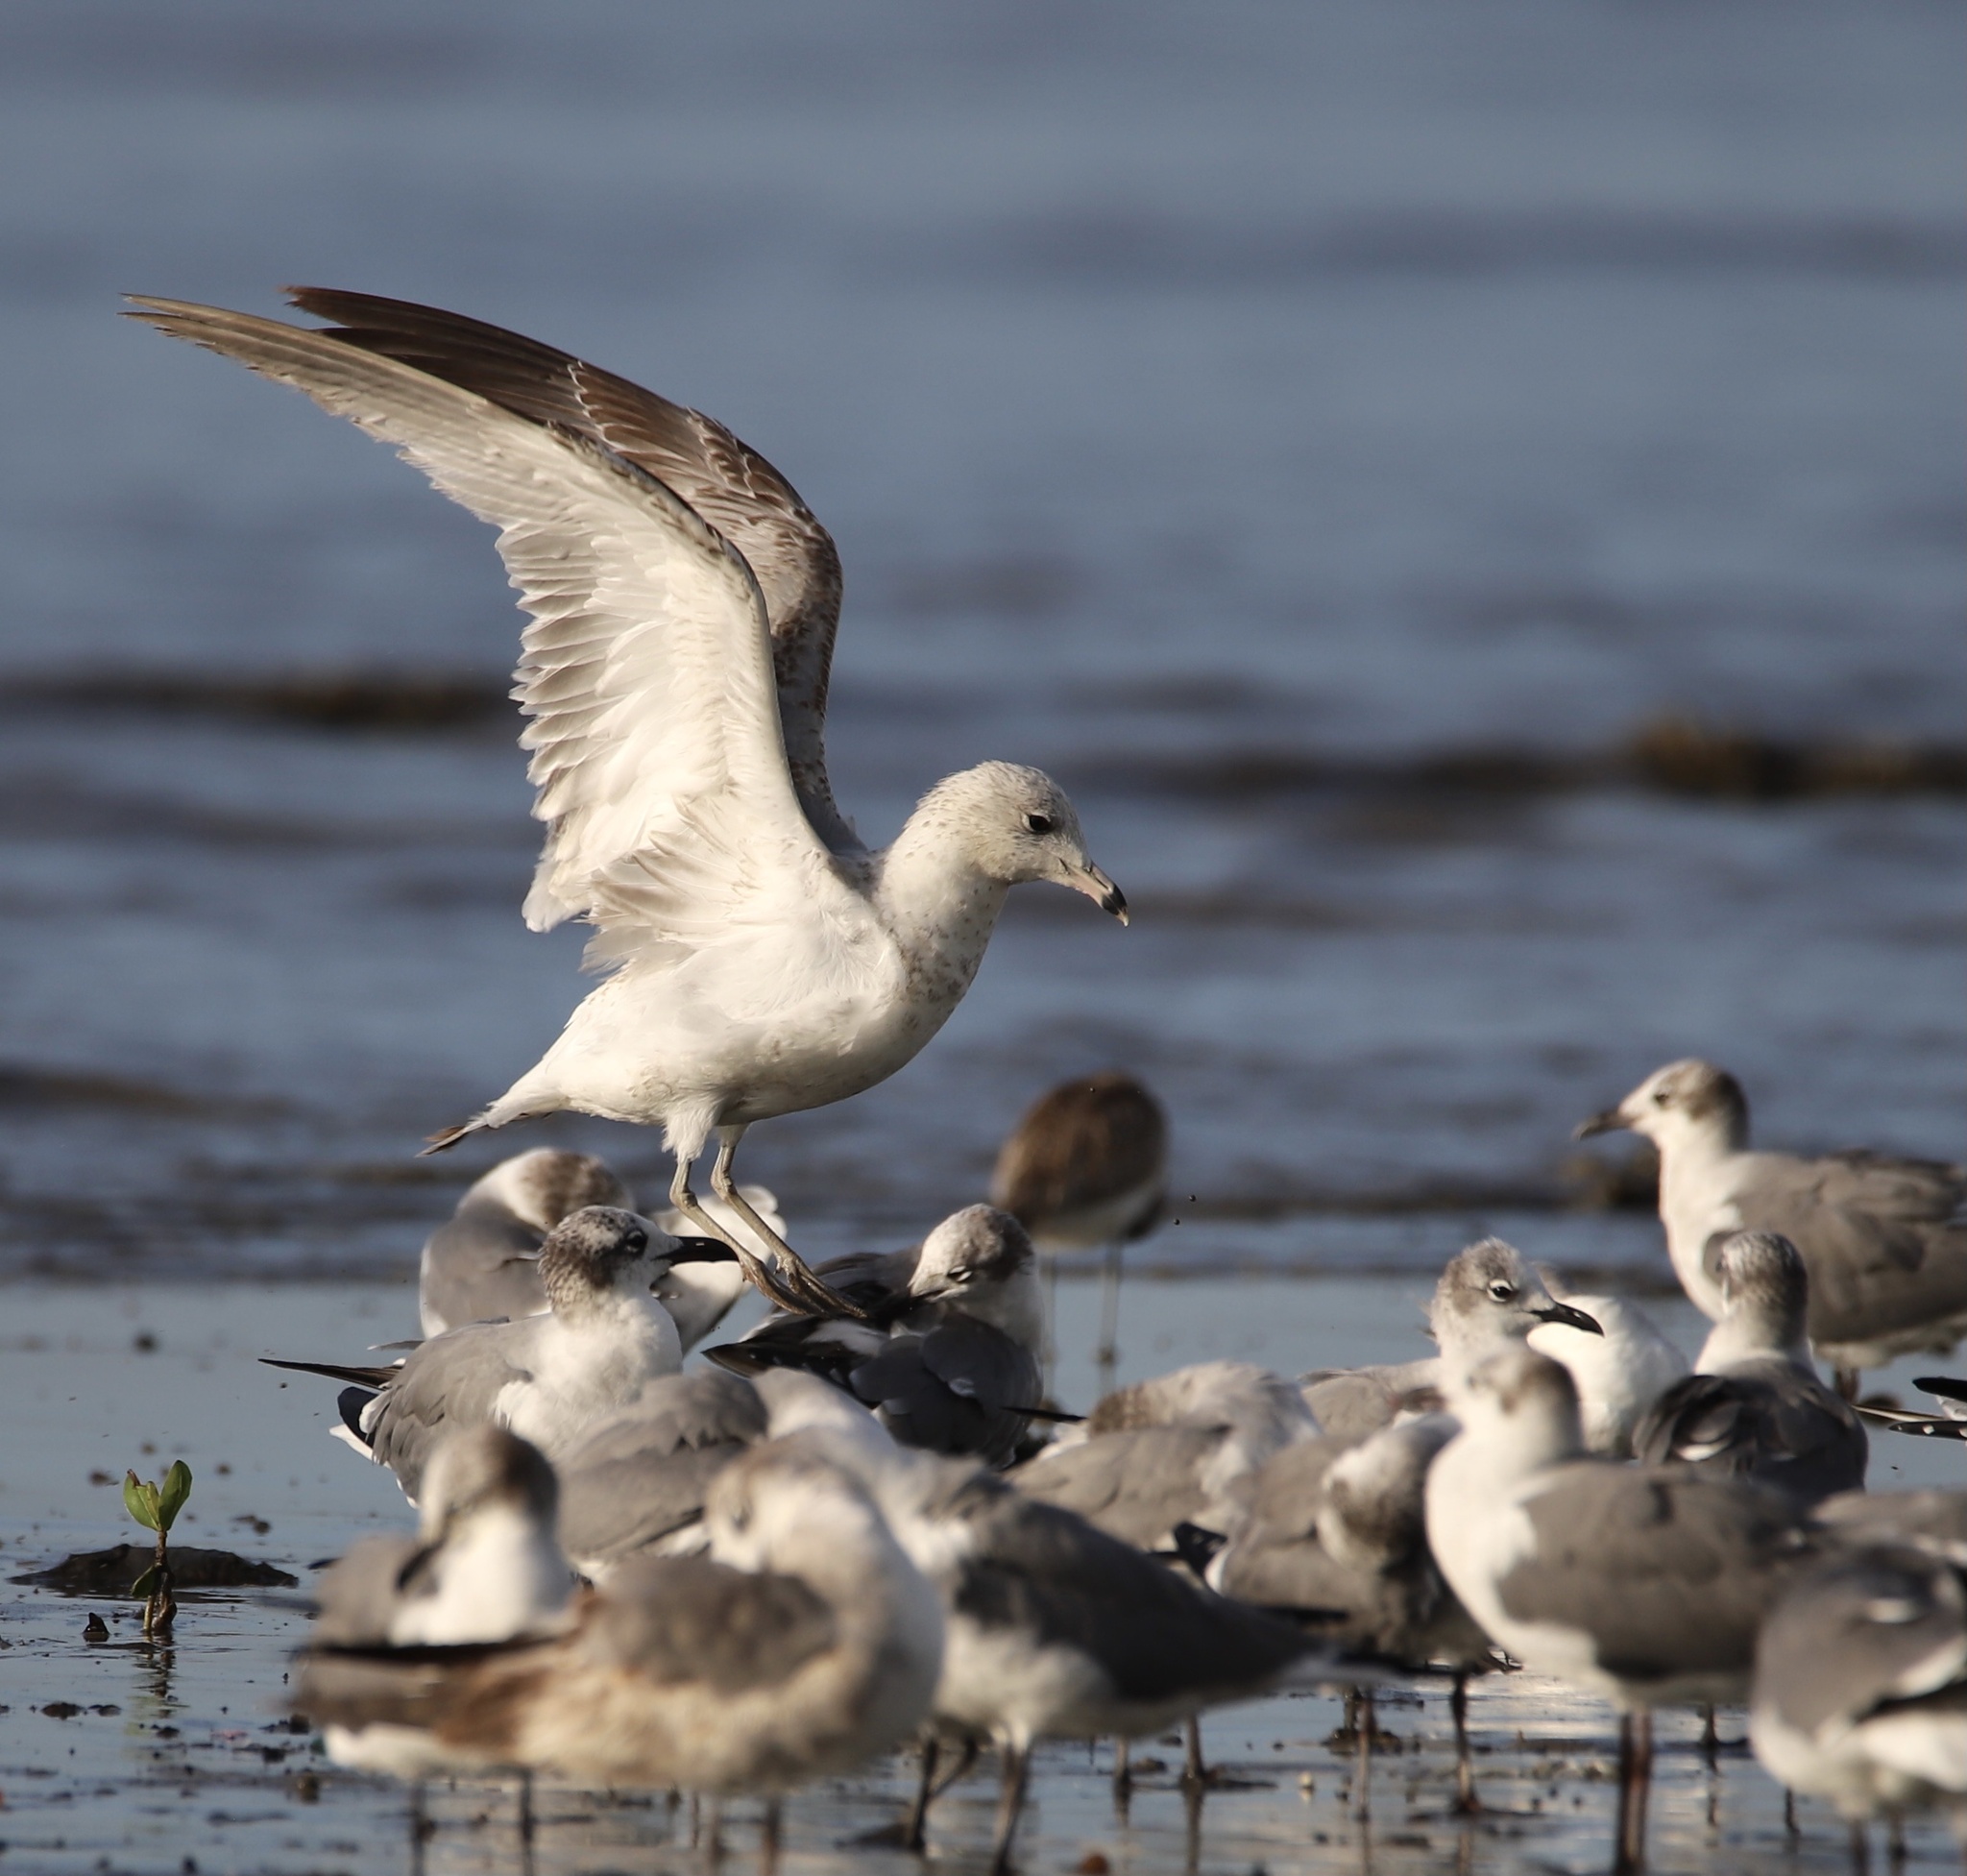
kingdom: Animalia
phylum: Chordata
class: Aves
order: Charadriiformes
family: Laridae
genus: Larus
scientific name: Larus delawarensis
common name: Ring-billed gull
